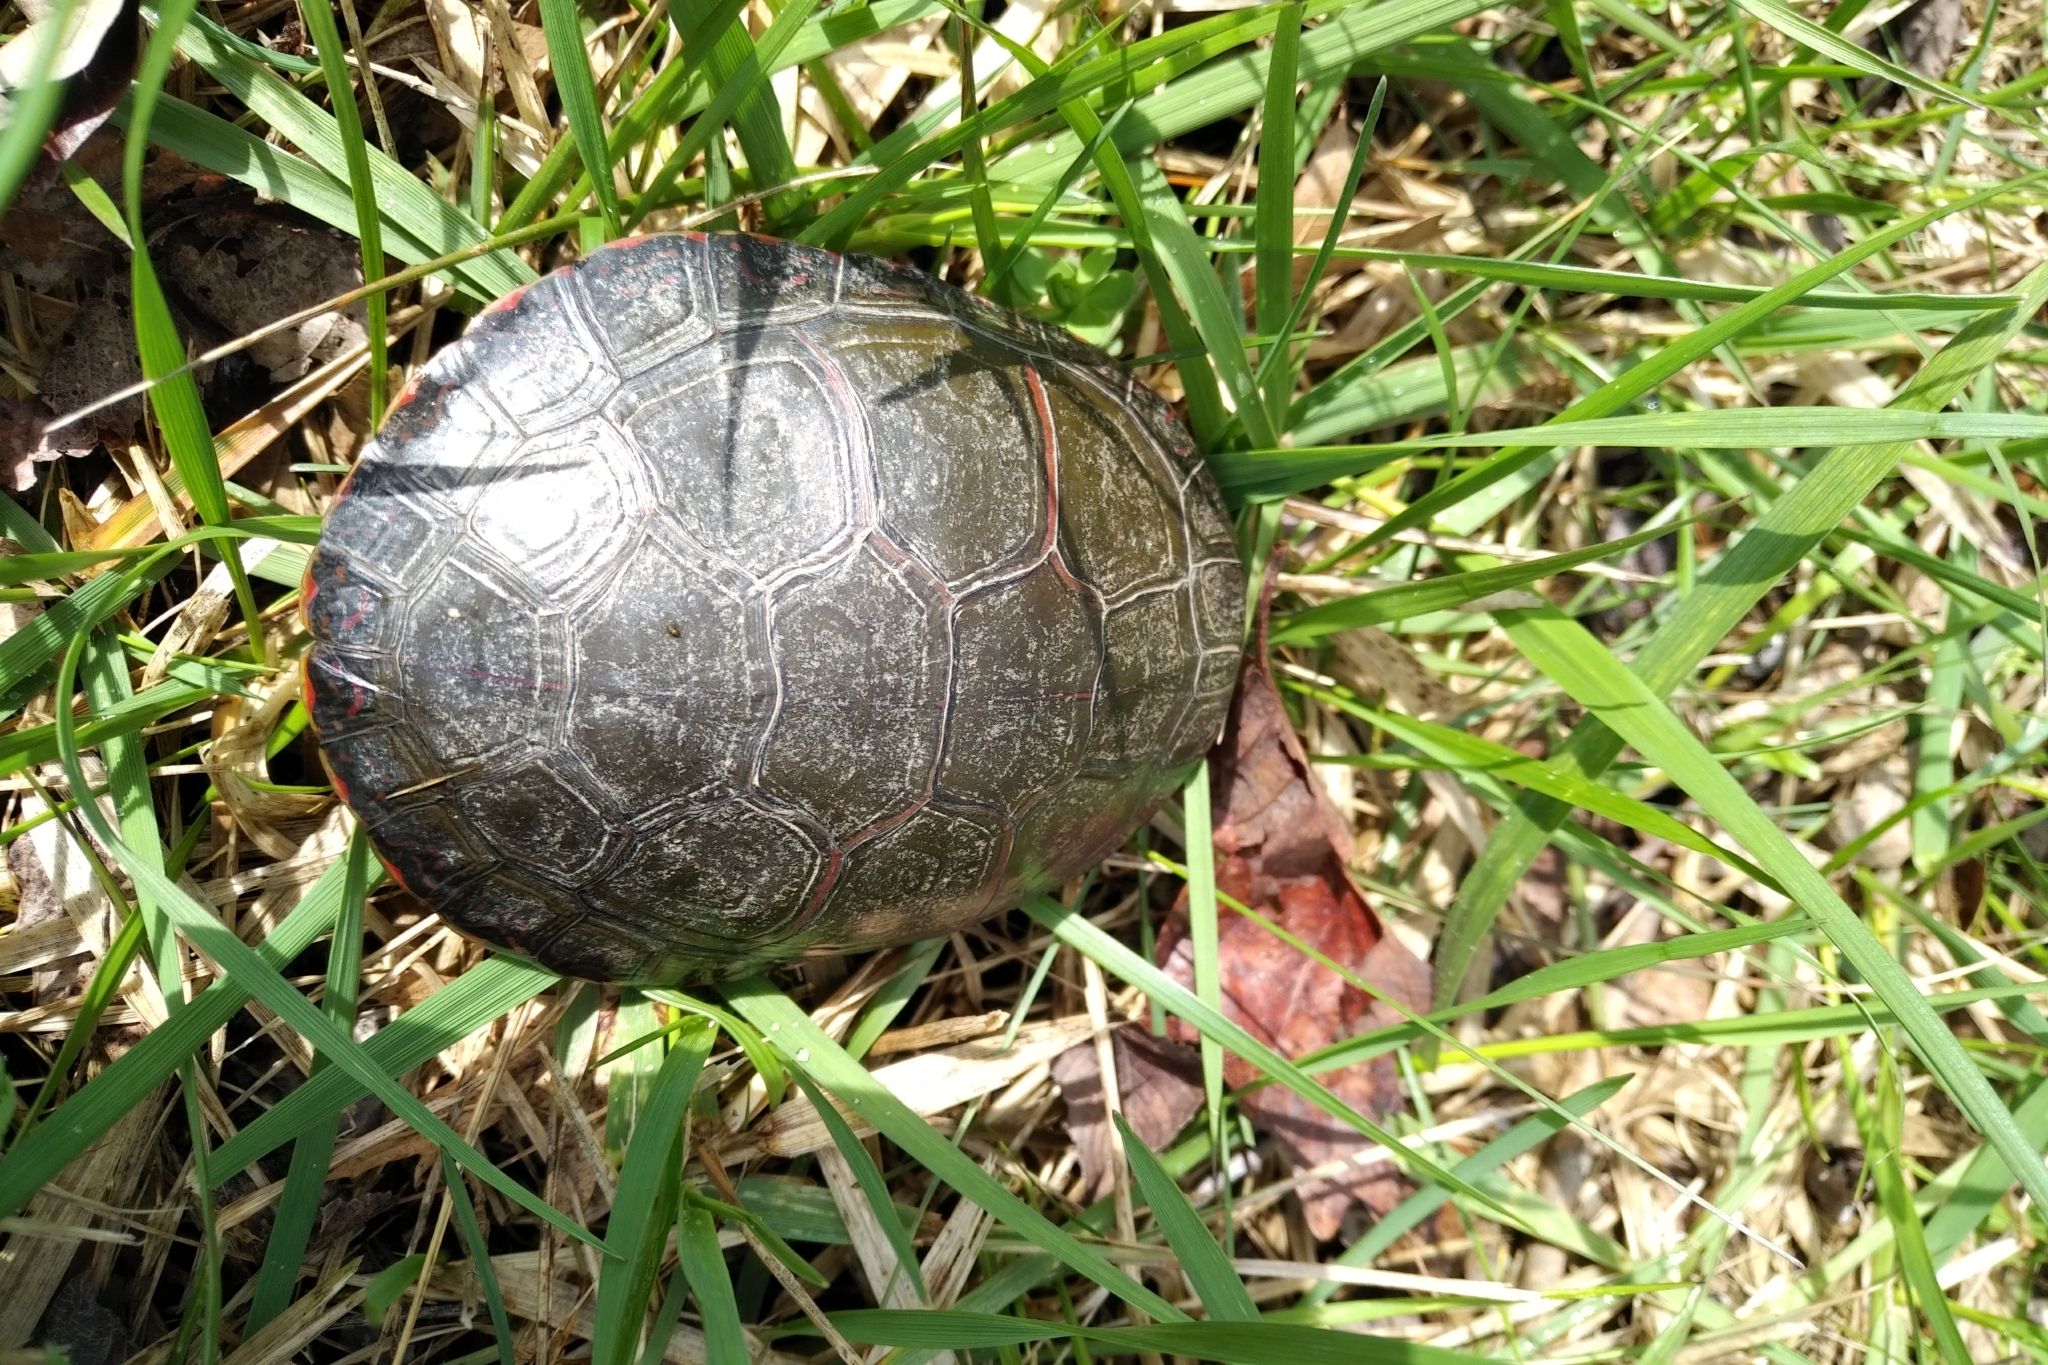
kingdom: Animalia
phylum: Chordata
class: Testudines
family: Emydidae
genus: Chrysemys
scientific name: Chrysemys picta
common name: Painted turtle
